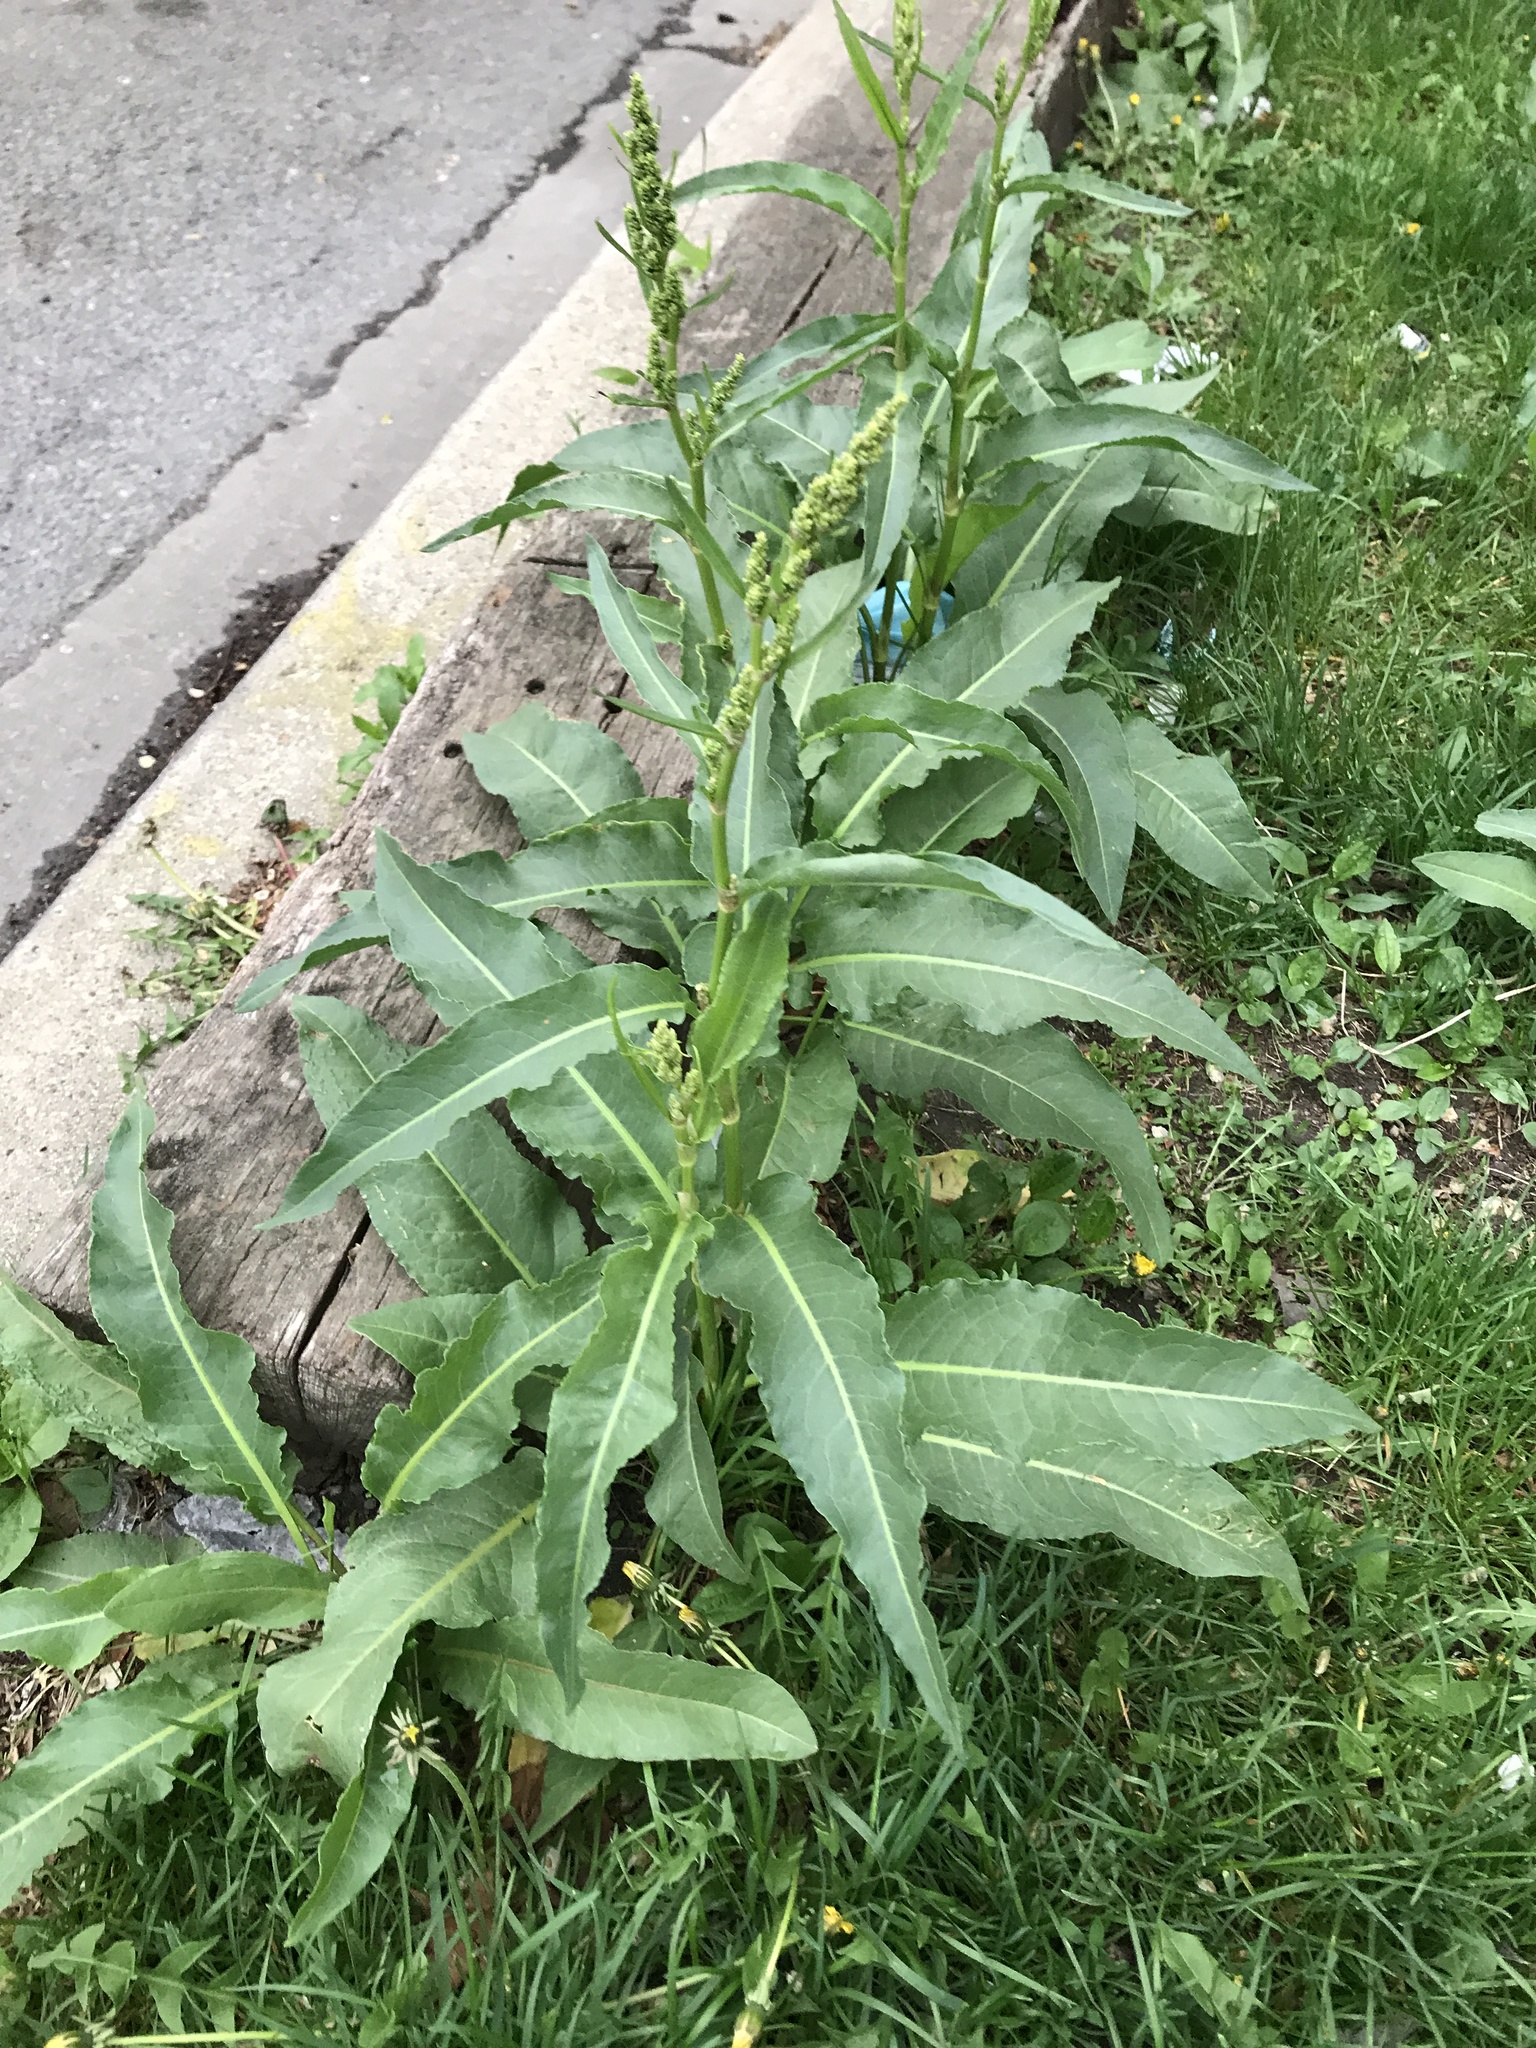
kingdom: Plantae
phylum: Tracheophyta
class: Magnoliopsida
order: Caryophyllales
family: Polygonaceae
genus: Rumex
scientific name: Rumex crispus
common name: Curled dock
